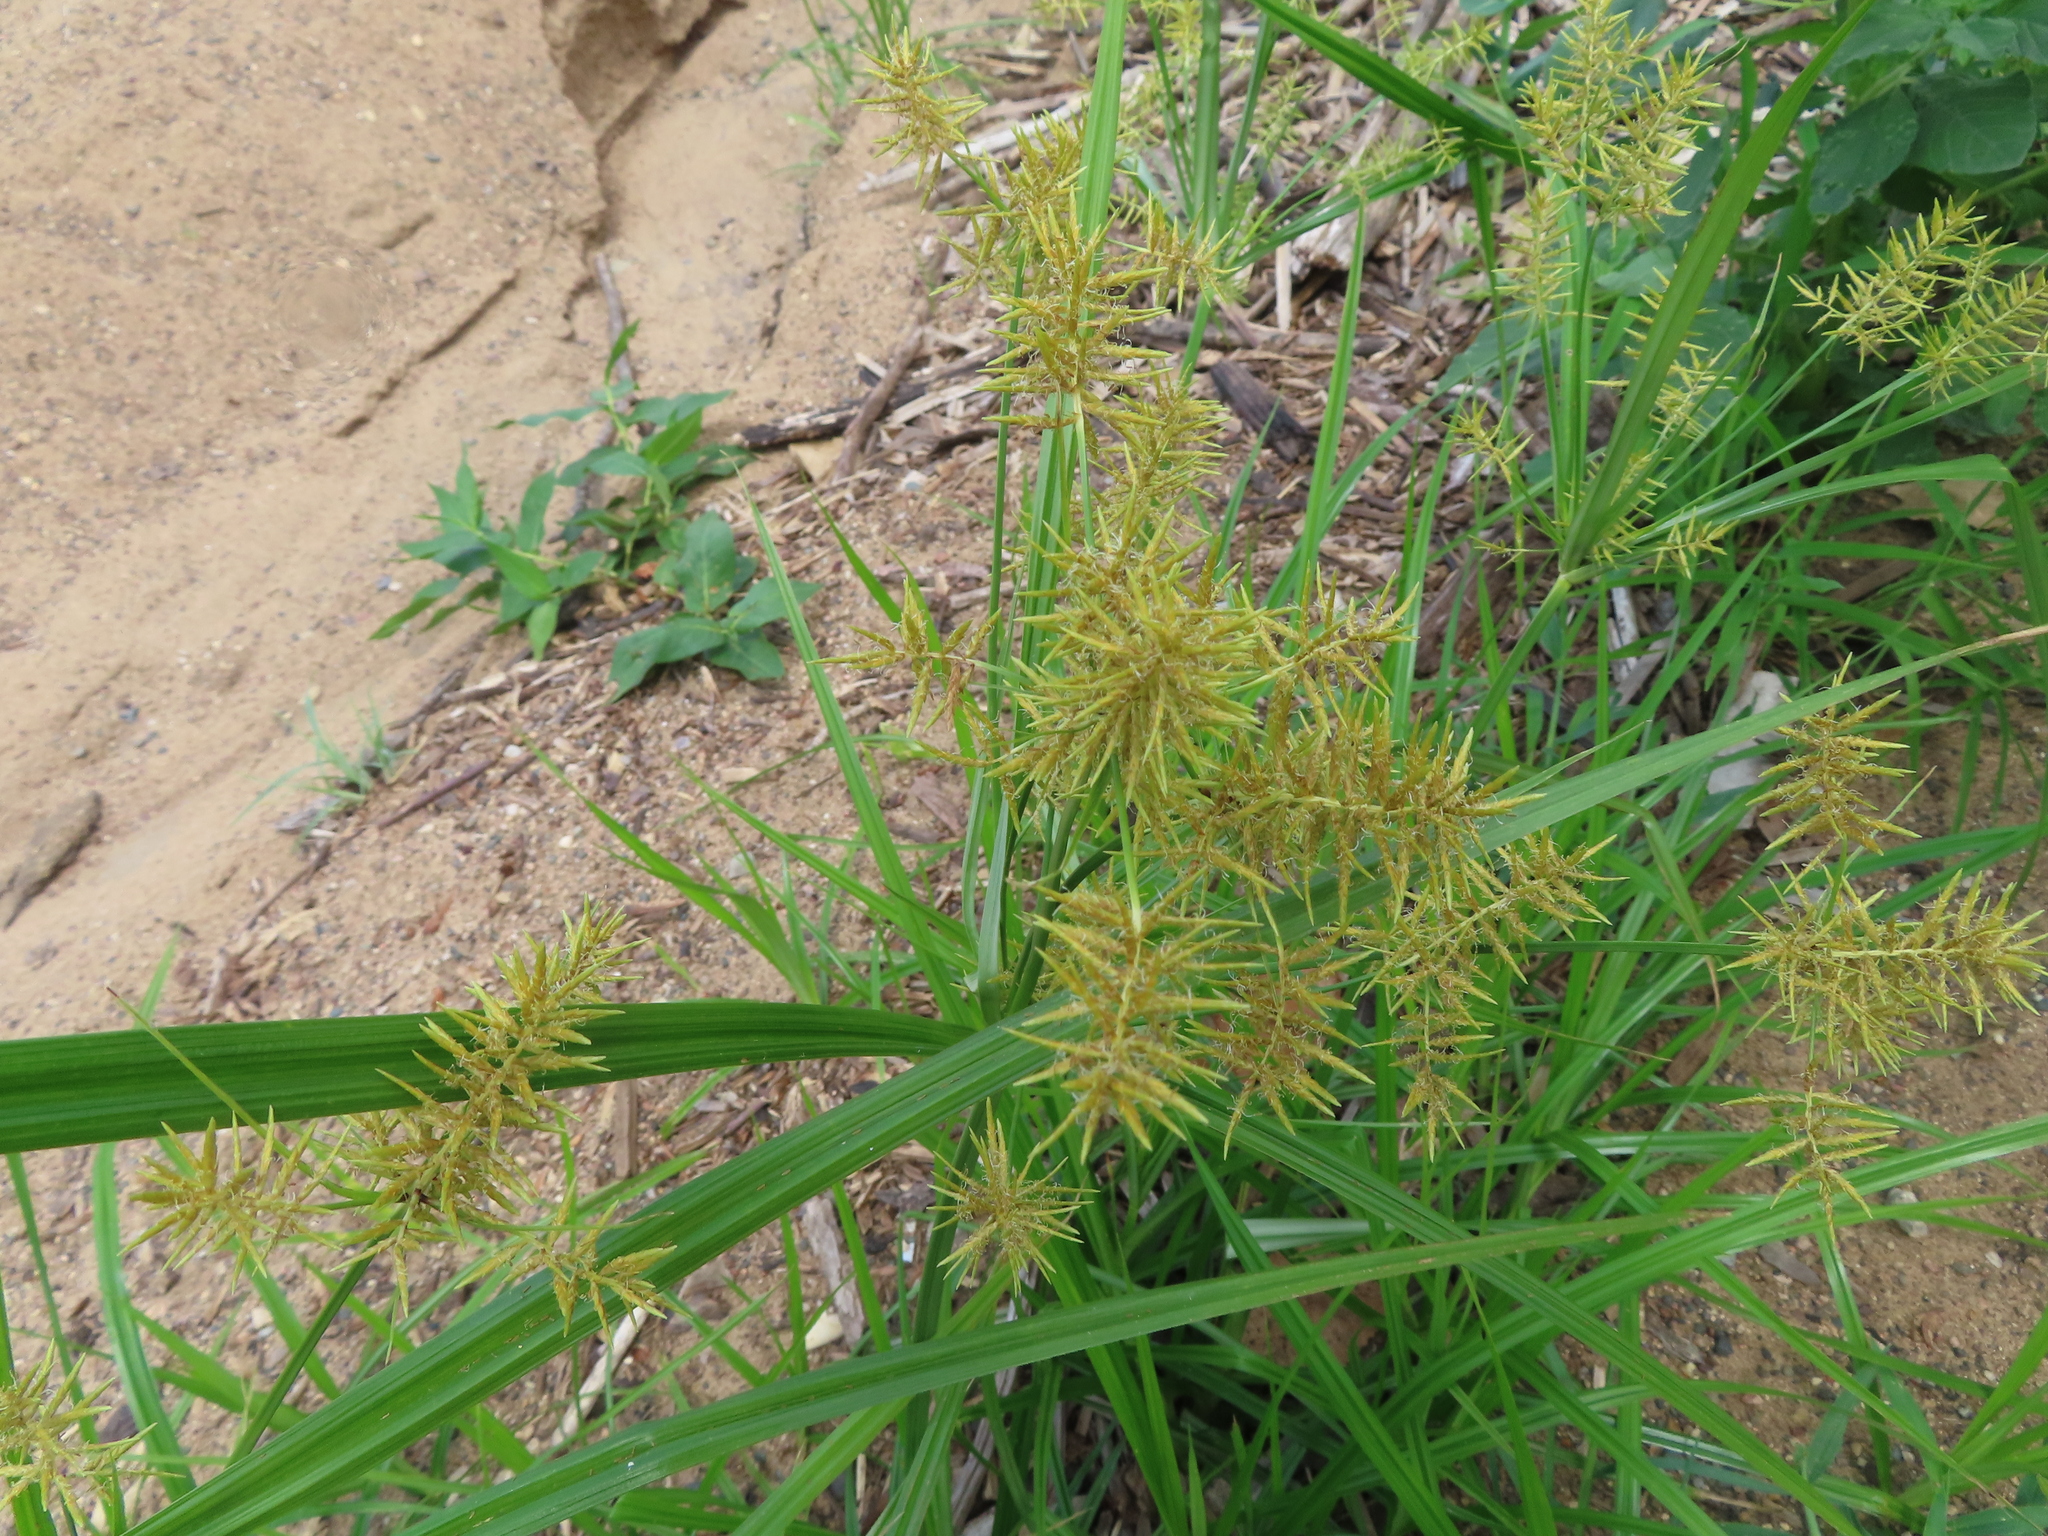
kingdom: Plantae
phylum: Tracheophyta
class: Liliopsida
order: Poales
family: Cyperaceae
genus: Cyperus
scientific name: Cyperus esculentus
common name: Yellow nutsedge
